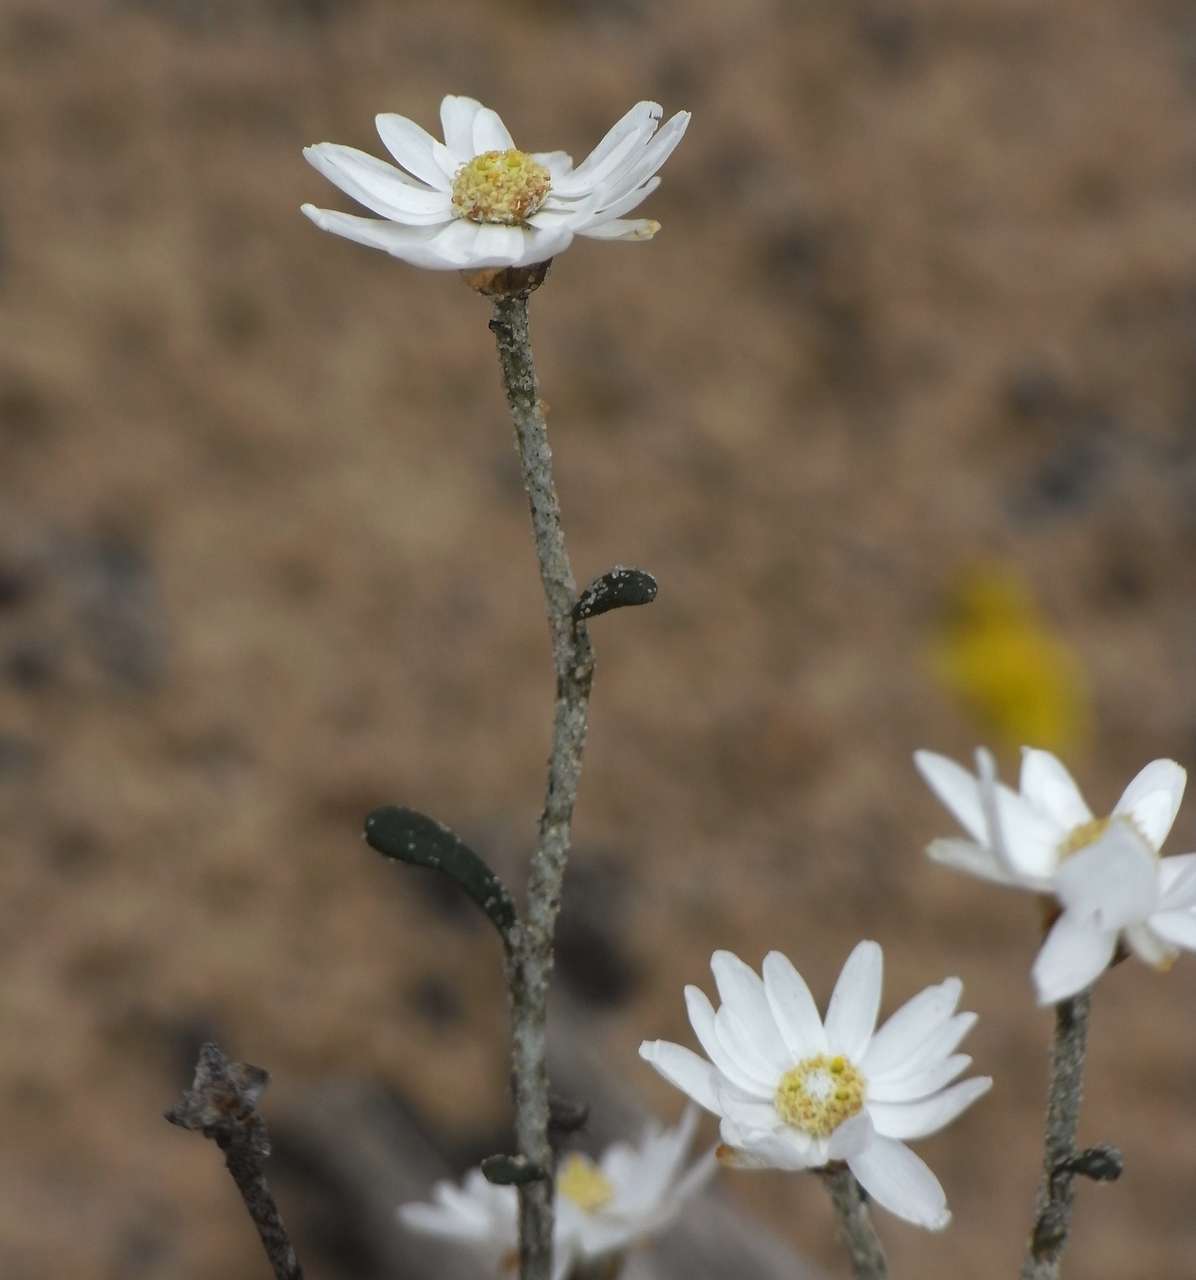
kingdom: Plantae
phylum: Tracheophyta
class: Magnoliopsida
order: Asterales
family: Asteraceae
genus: Argentipallium
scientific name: Argentipallium obtusifolium
